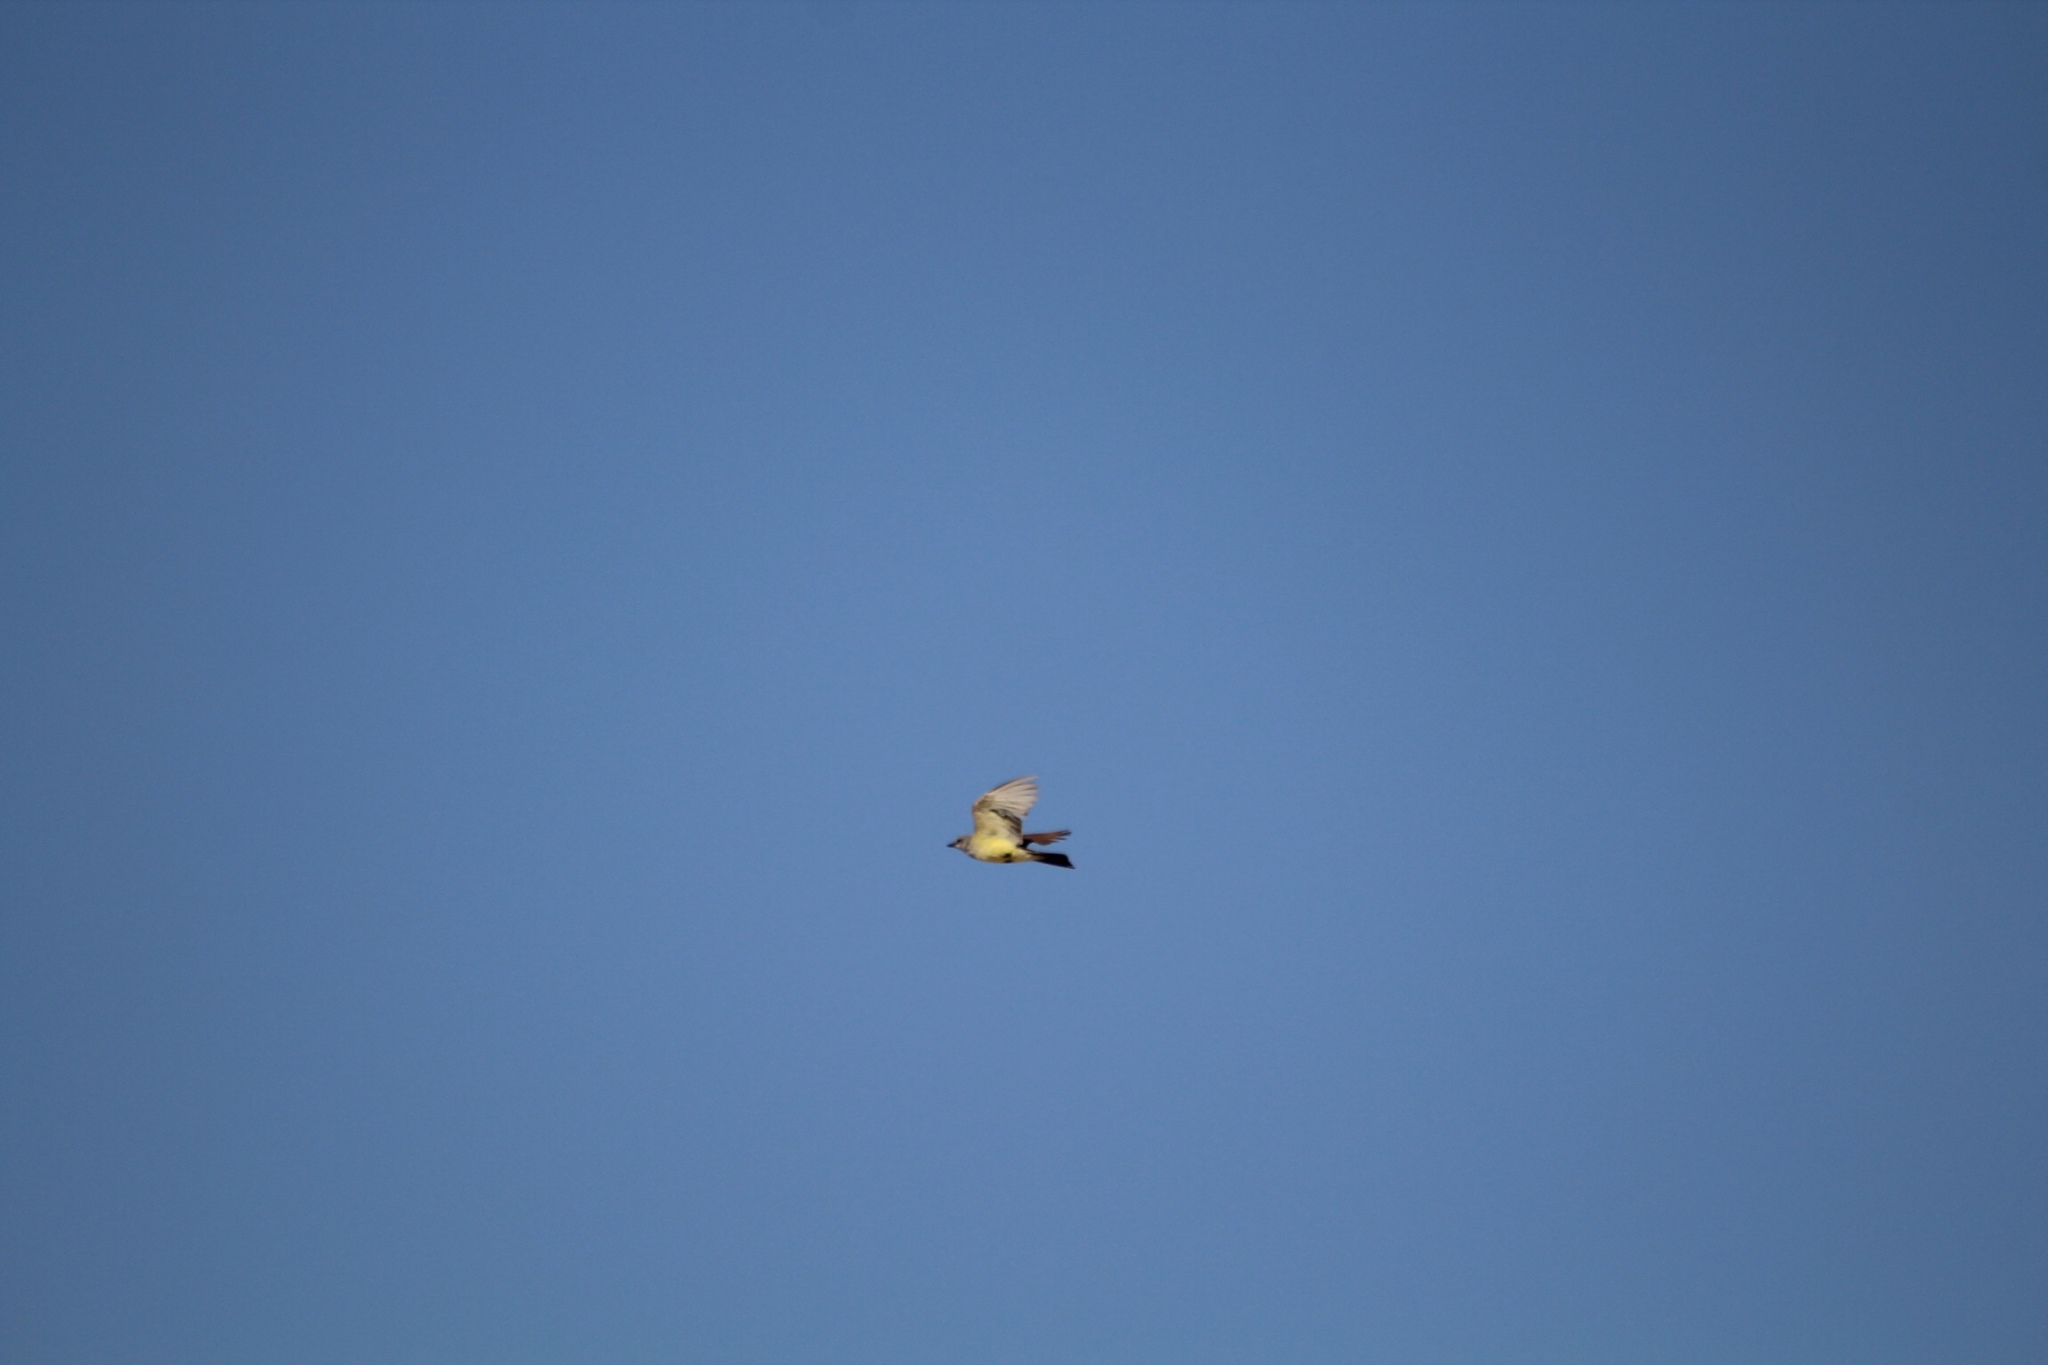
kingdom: Animalia
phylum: Chordata
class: Aves
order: Passeriformes
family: Tyrannidae
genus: Tyrannus
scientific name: Tyrannus verticalis
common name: Western kingbird
